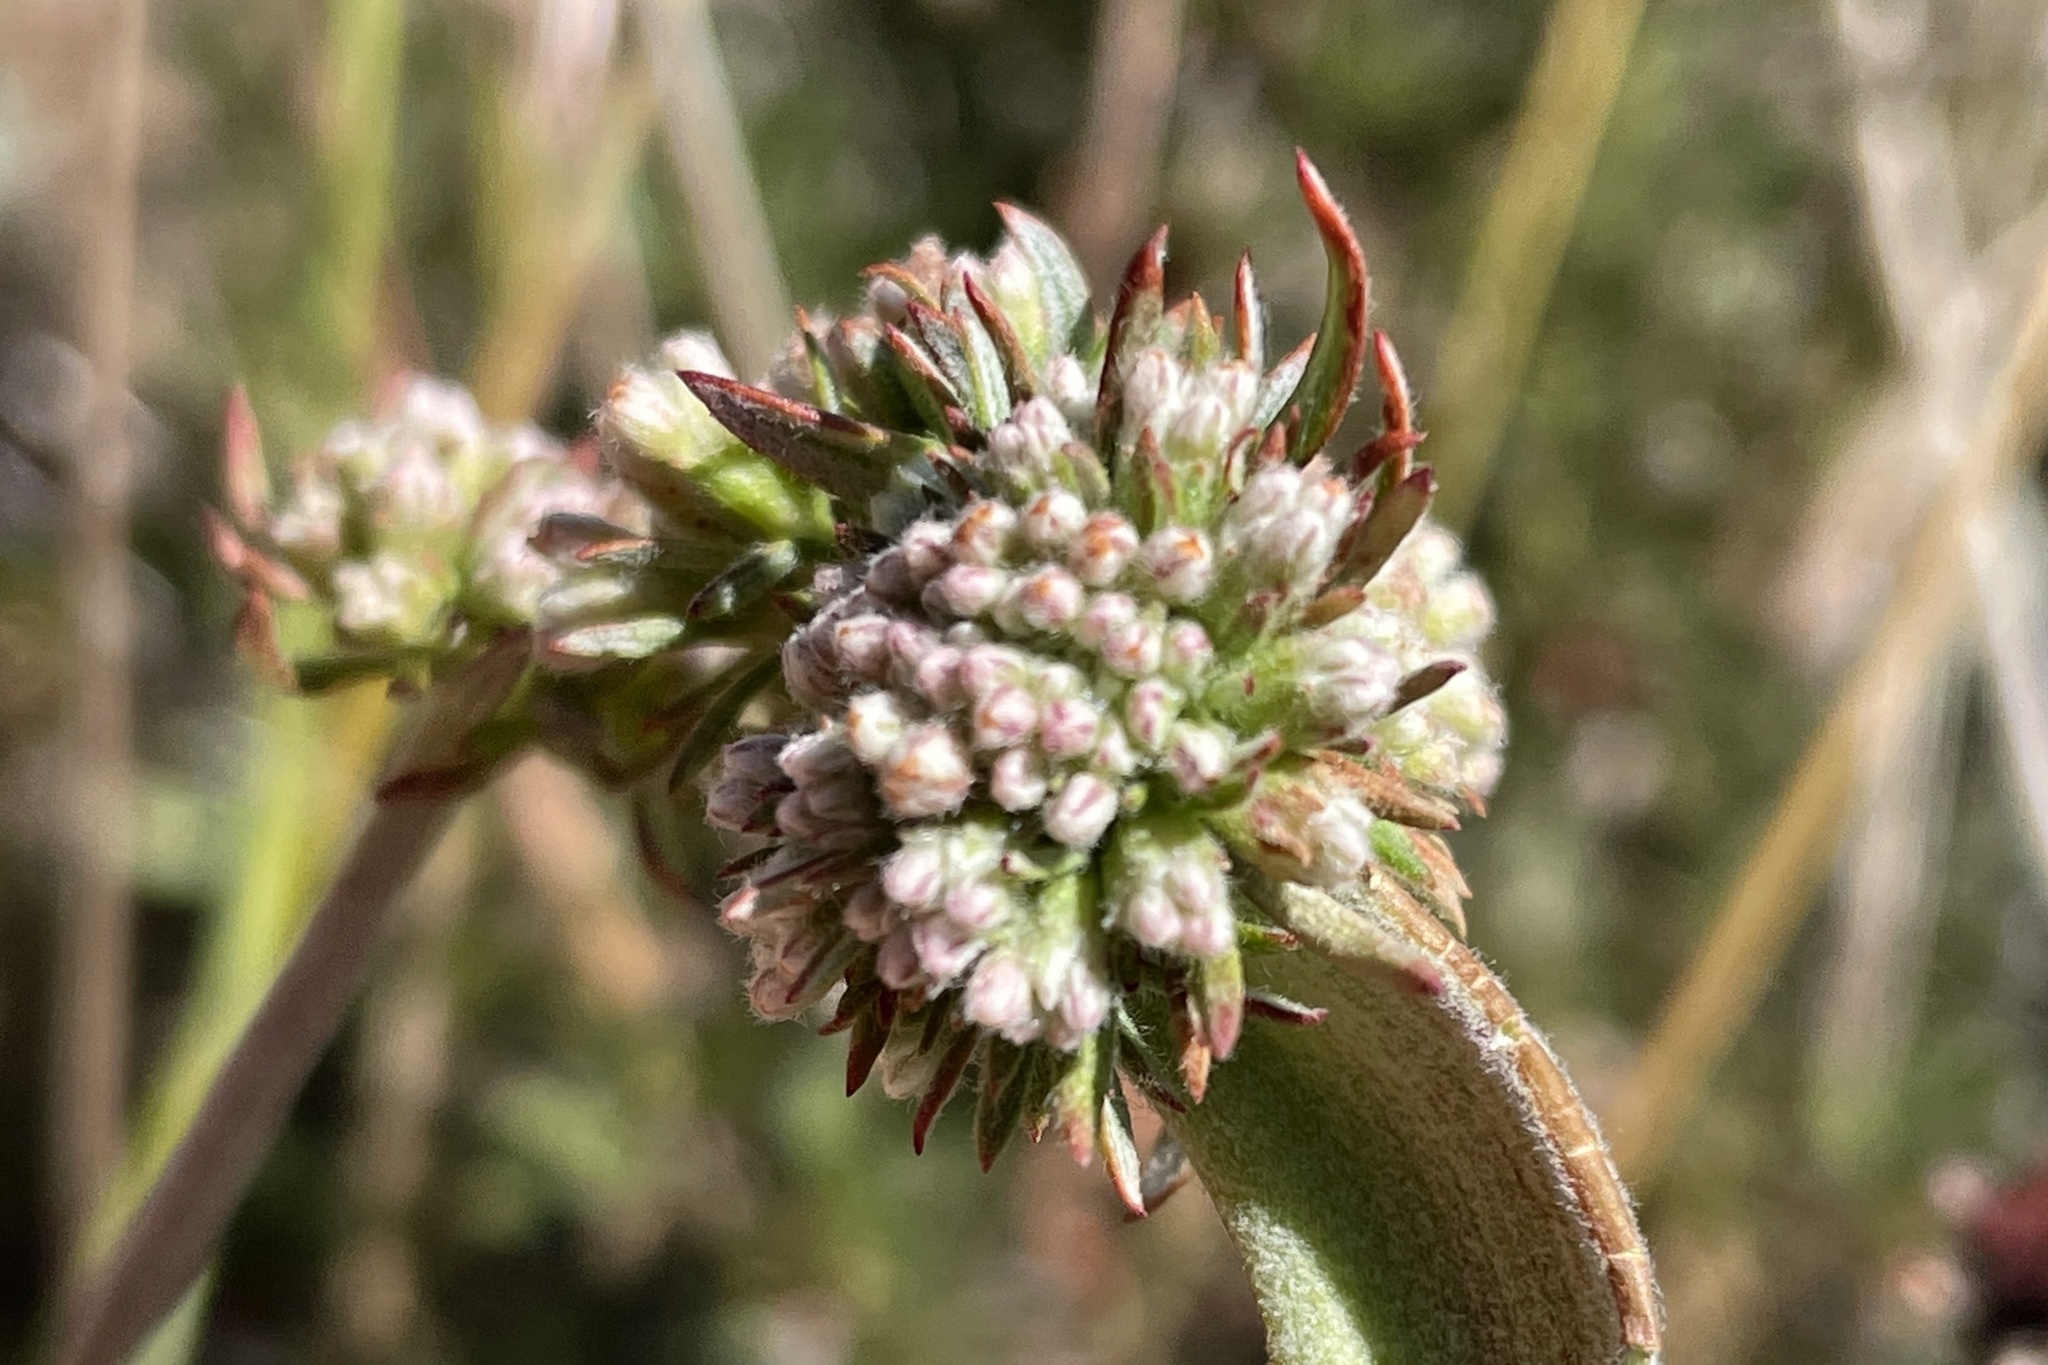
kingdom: Plantae
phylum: Tracheophyta
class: Magnoliopsida
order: Caryophyllales
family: Polygonaceae
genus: Eriogonum
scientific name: Eriogonum fasciculatum
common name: California wild buckwheat
